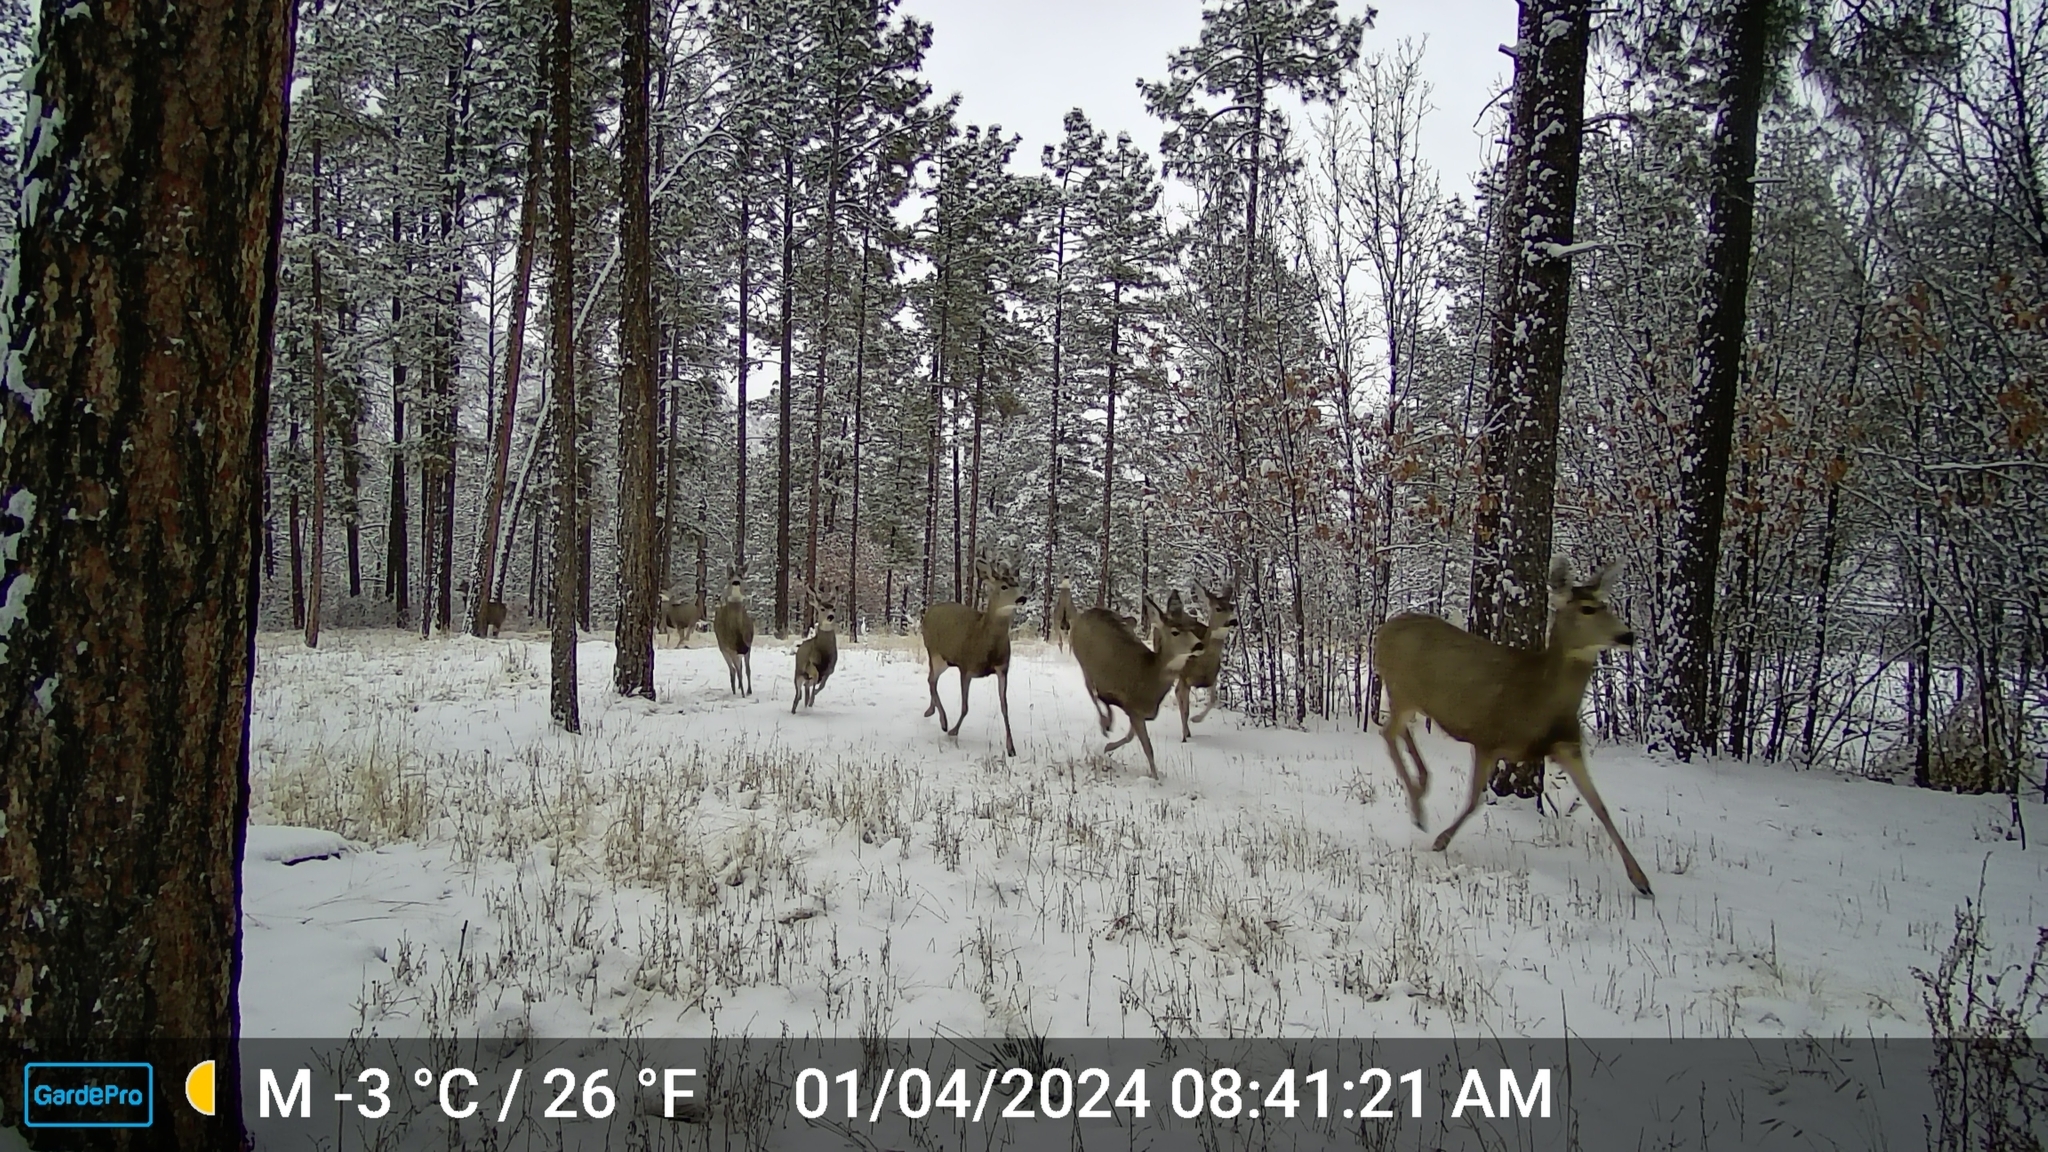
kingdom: Animalia
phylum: Chordata
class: Mammalia
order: Artiodactyla
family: Cervidae
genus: Odocoileus
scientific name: Odocoileus hemionus
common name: Mule deer
